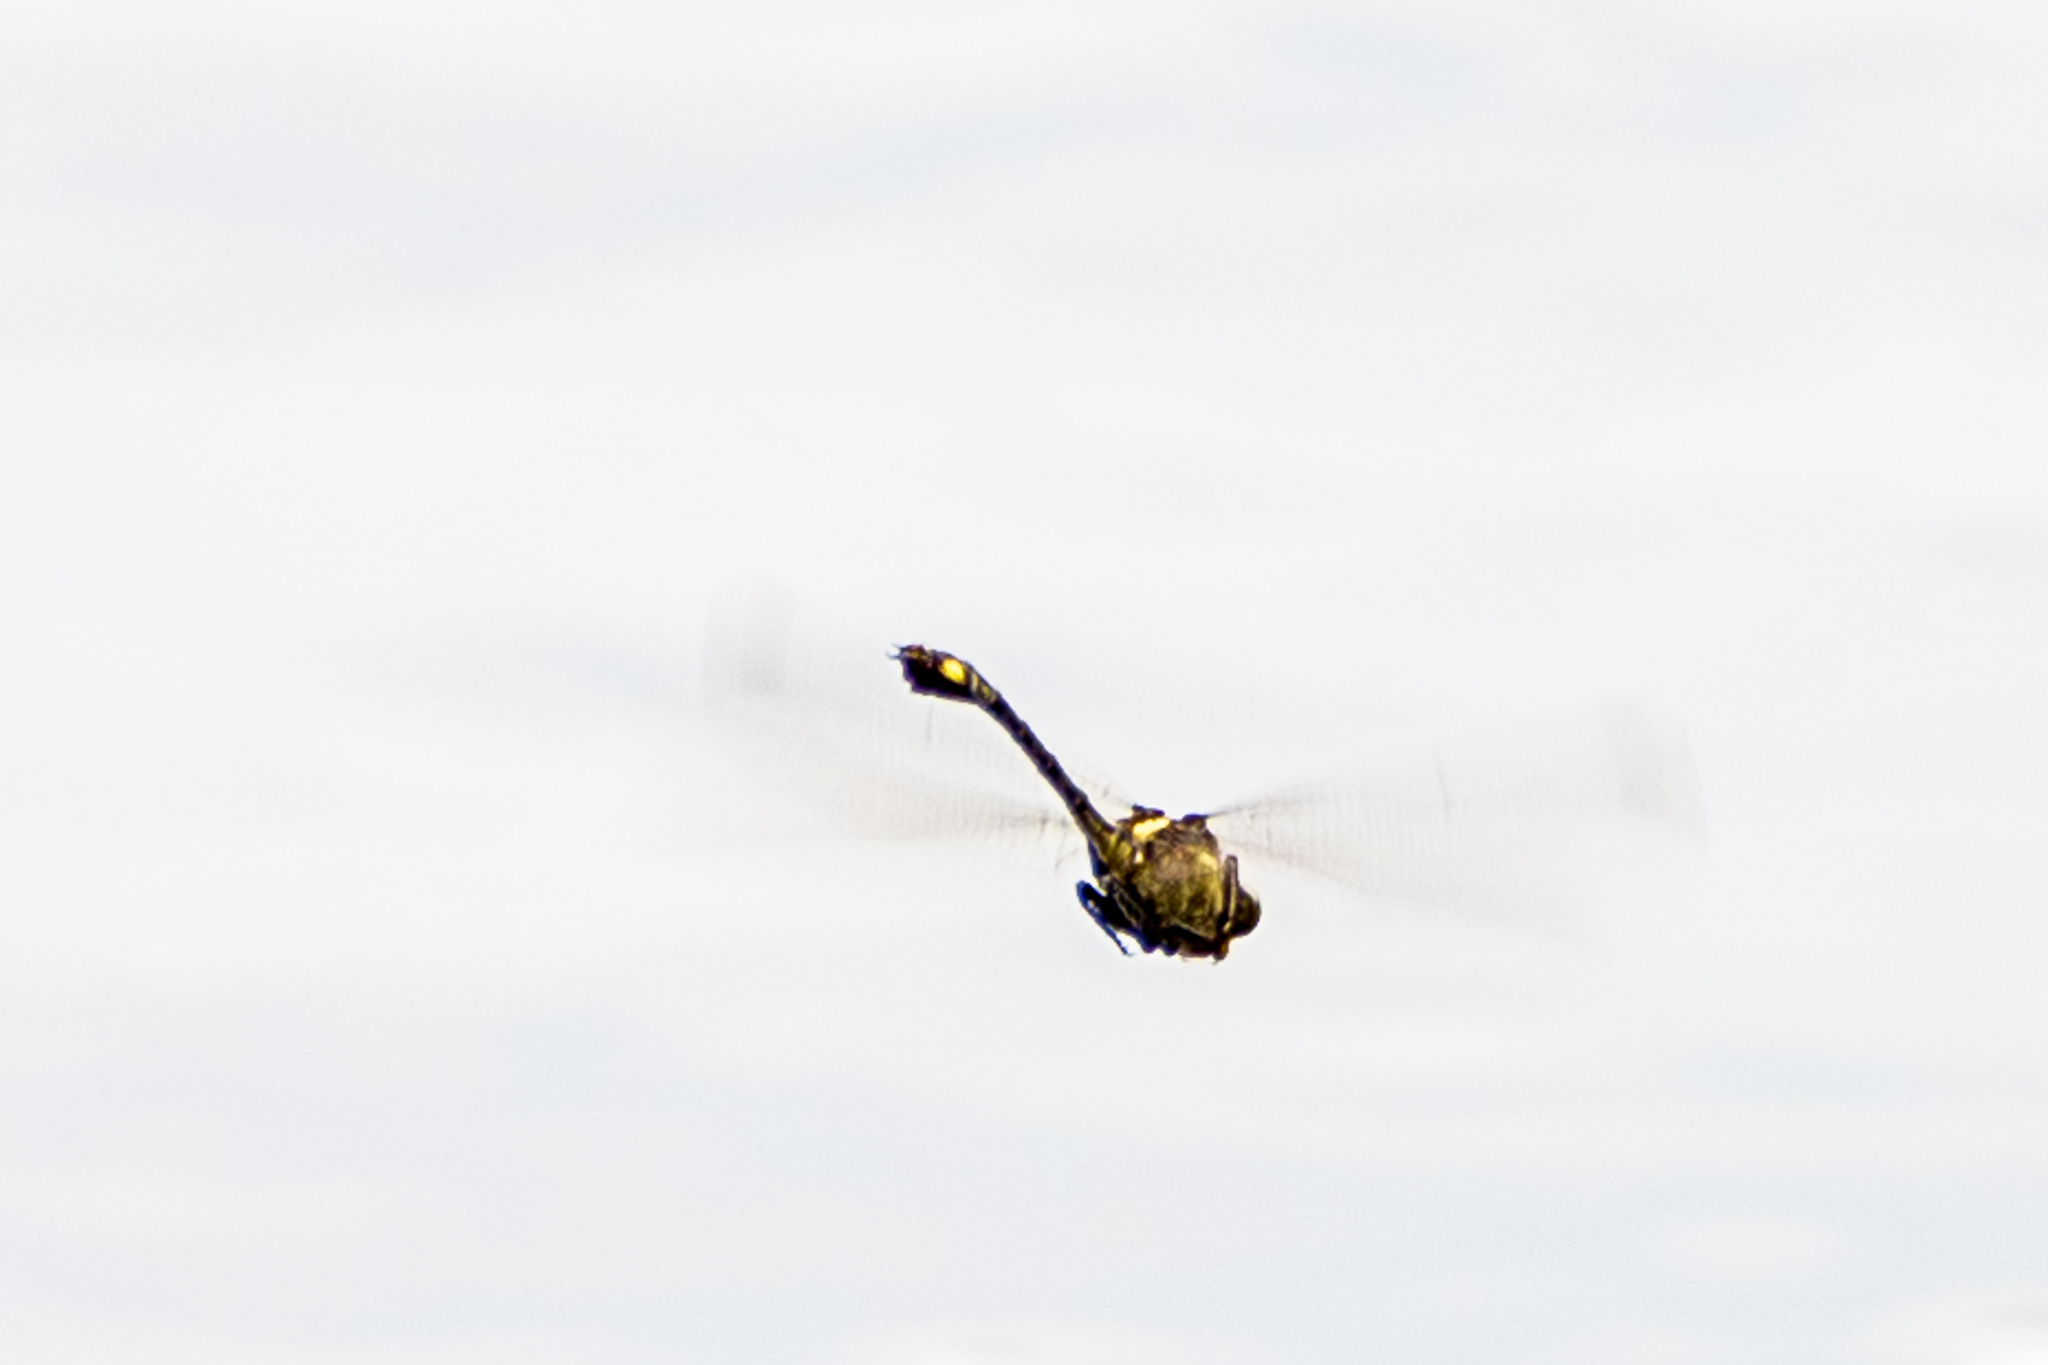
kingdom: Animalia
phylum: Arthropoda
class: Insecta
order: Odonata
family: Gomphidae
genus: Dromogomphus
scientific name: Dromogomphus spinosus
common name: Black-shouldered spinyleg
